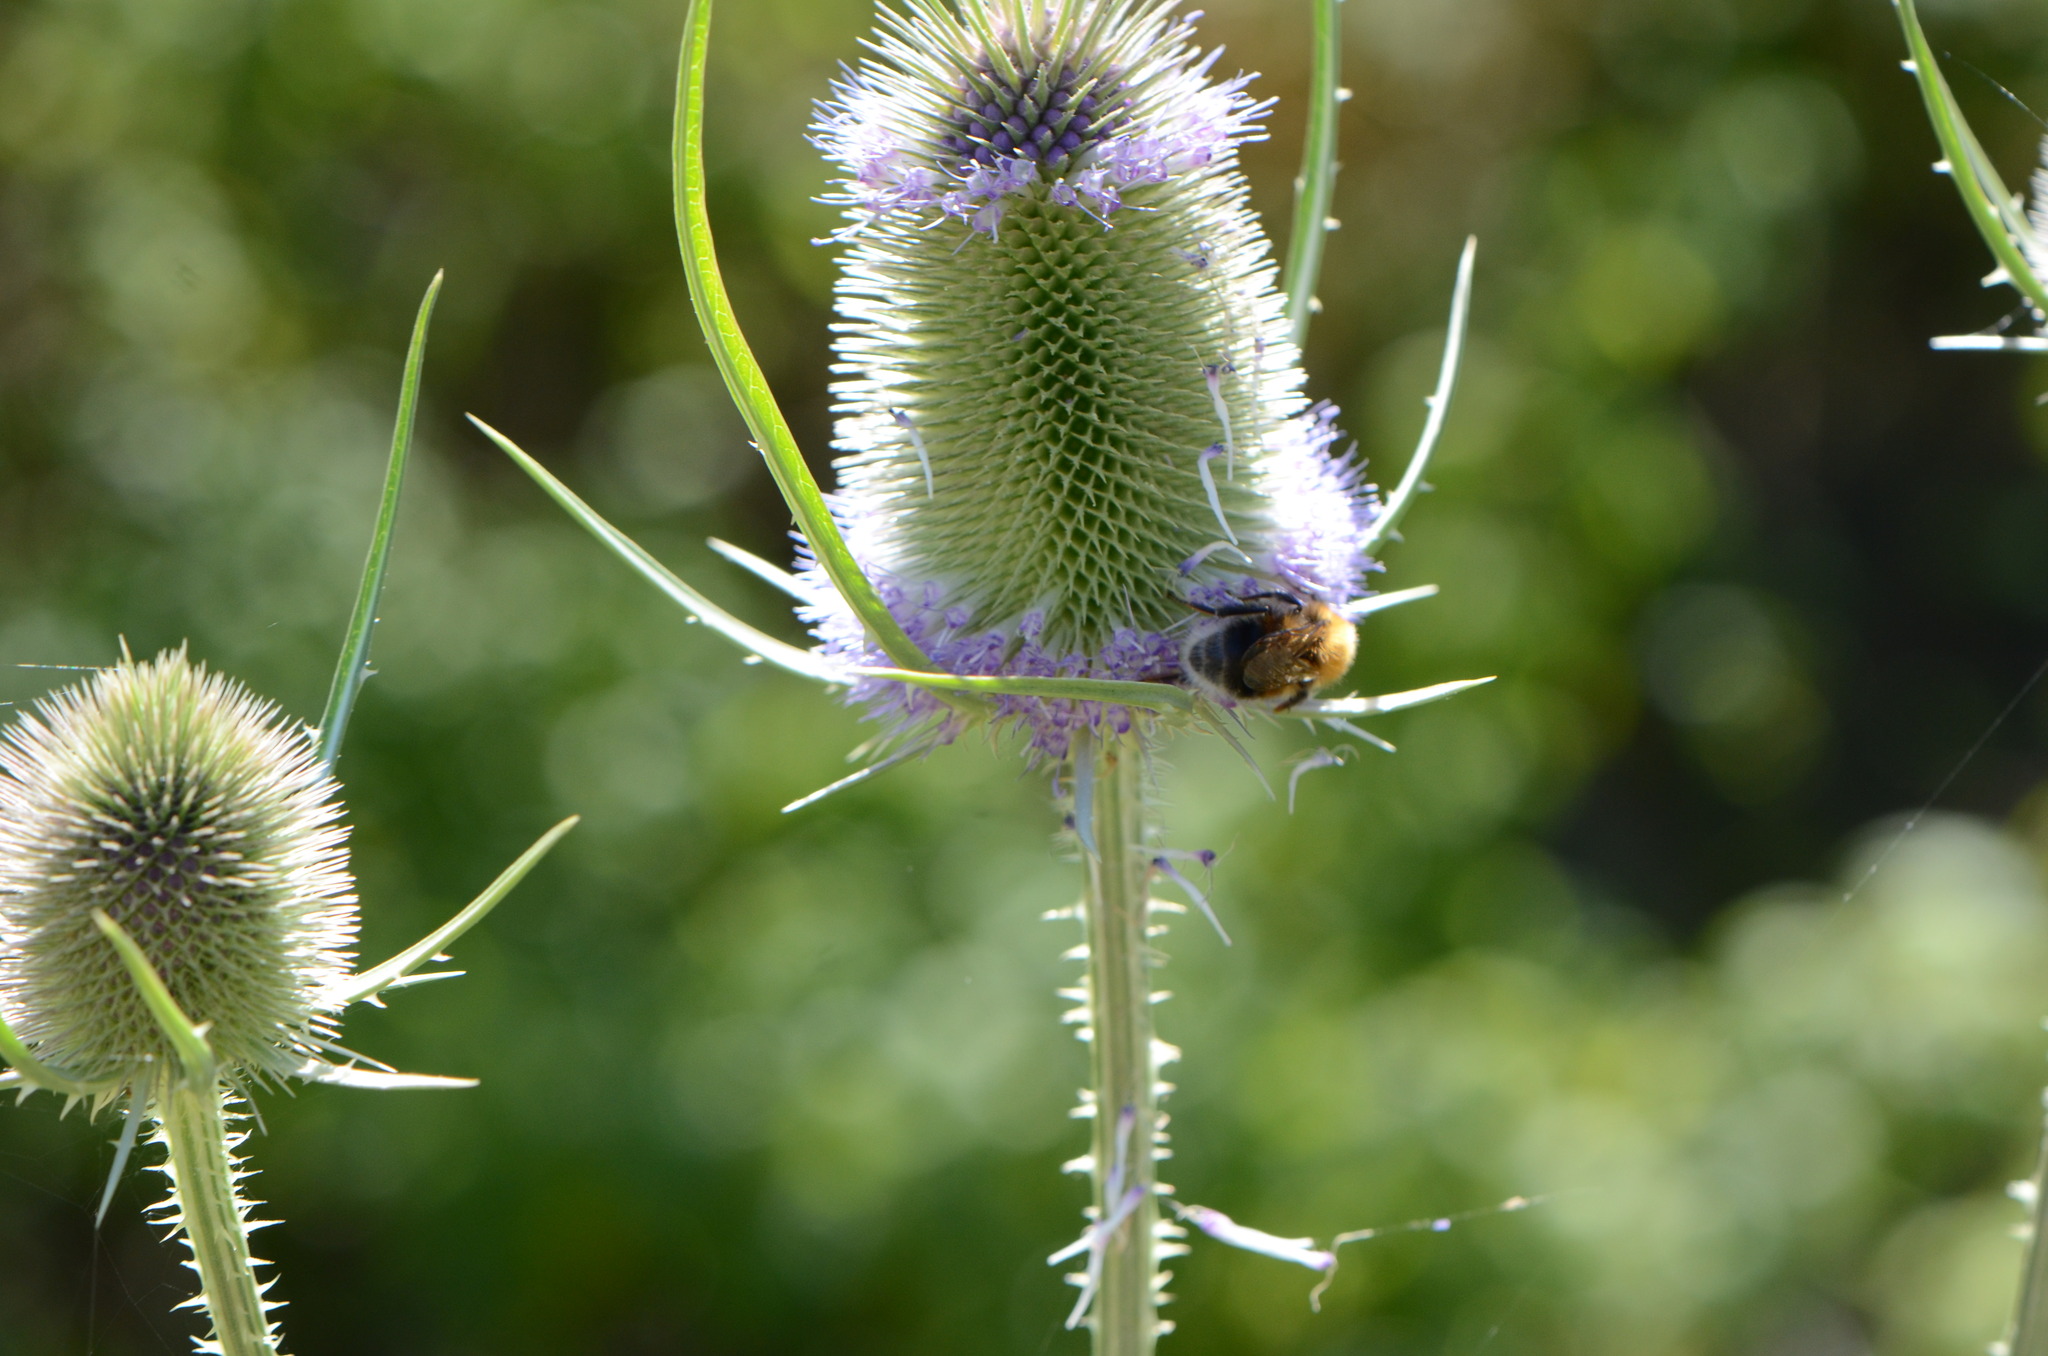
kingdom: Animalia
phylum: Arthropoda
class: Insecta
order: Hymenoptera
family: Apidae
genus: Bombus
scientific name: Bombus hypnorum
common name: New garden bumblebee
